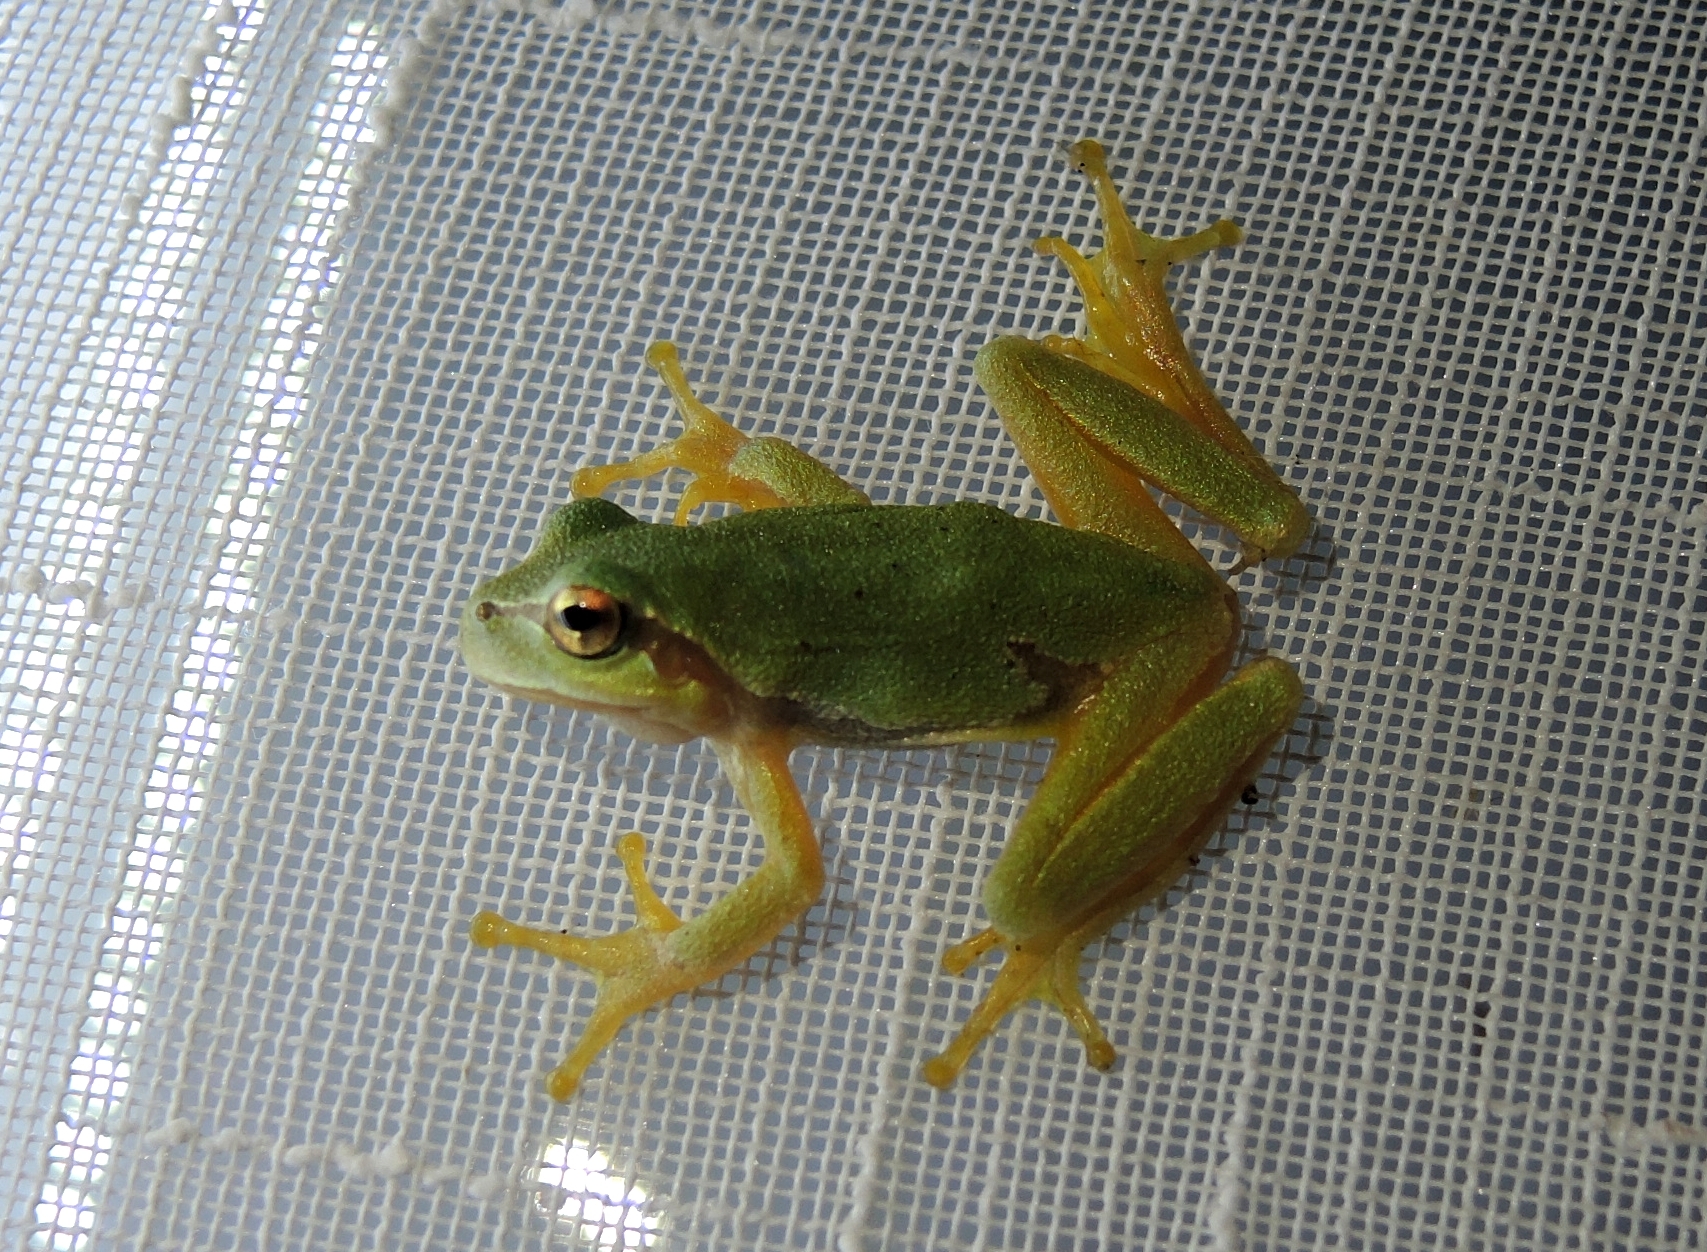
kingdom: Animalia
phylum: Chordata
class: Amphibia
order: Anura
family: Hylidae
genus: Hyla
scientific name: Hyla orientalis
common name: Caucasian treefrog
